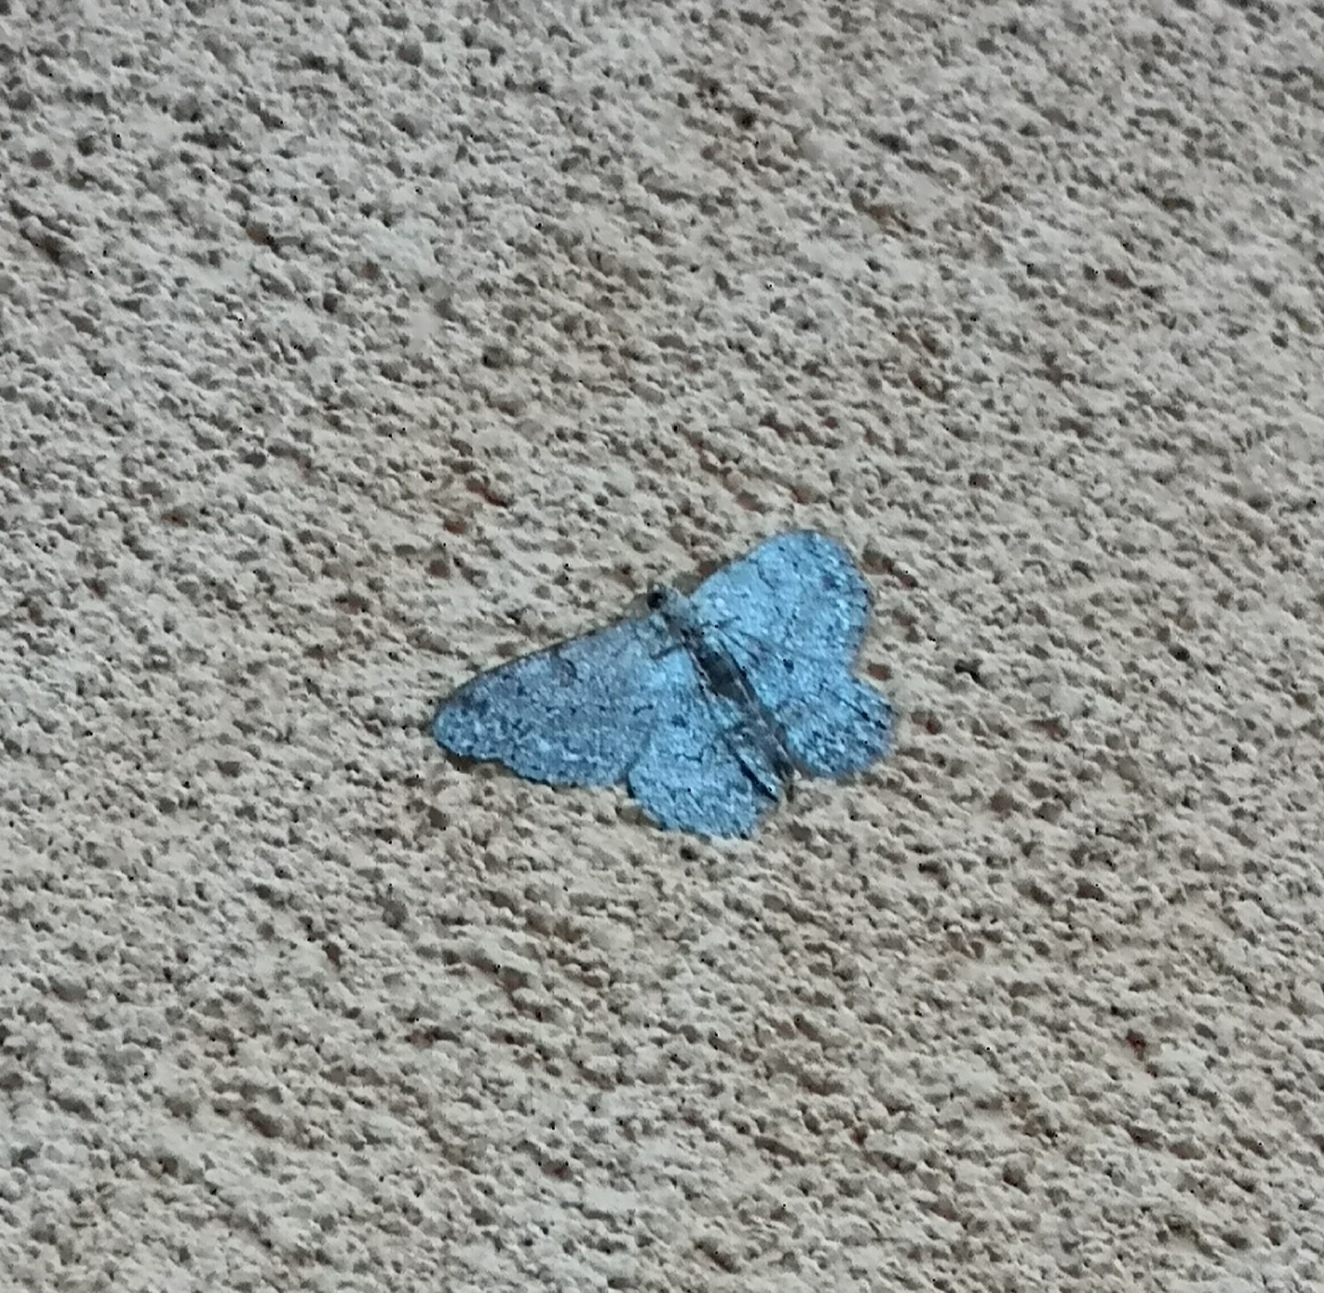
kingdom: Animalia
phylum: Arthropoda
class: Insecta
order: Lepidoptera
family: Geometridae
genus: Hypomecis
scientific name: Hypomecis punctinalis
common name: Pale oak beauty
